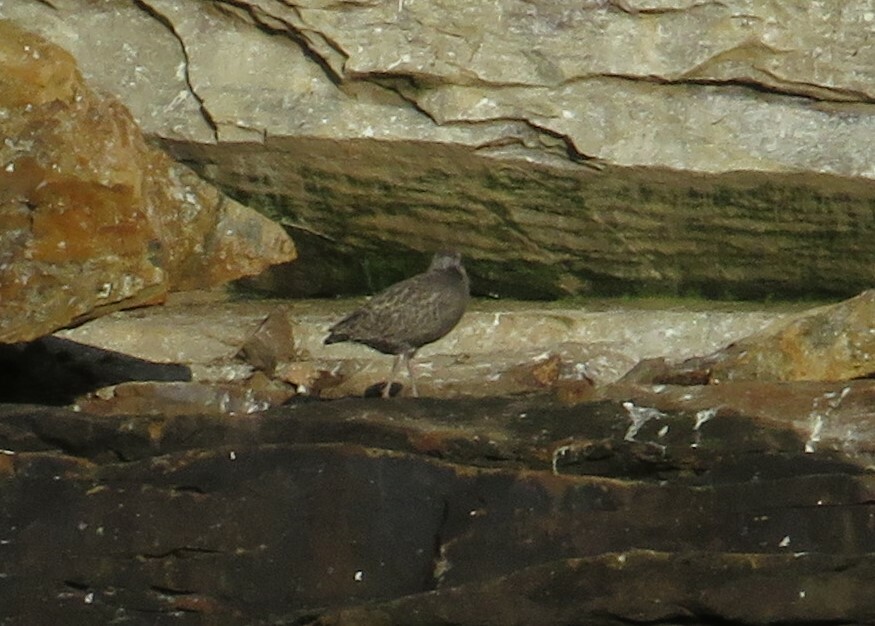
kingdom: Animalia
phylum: Chordata
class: Aves
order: Charadriiformes
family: Laridae
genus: Larus
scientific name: Larus argentatus
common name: Herring gull
